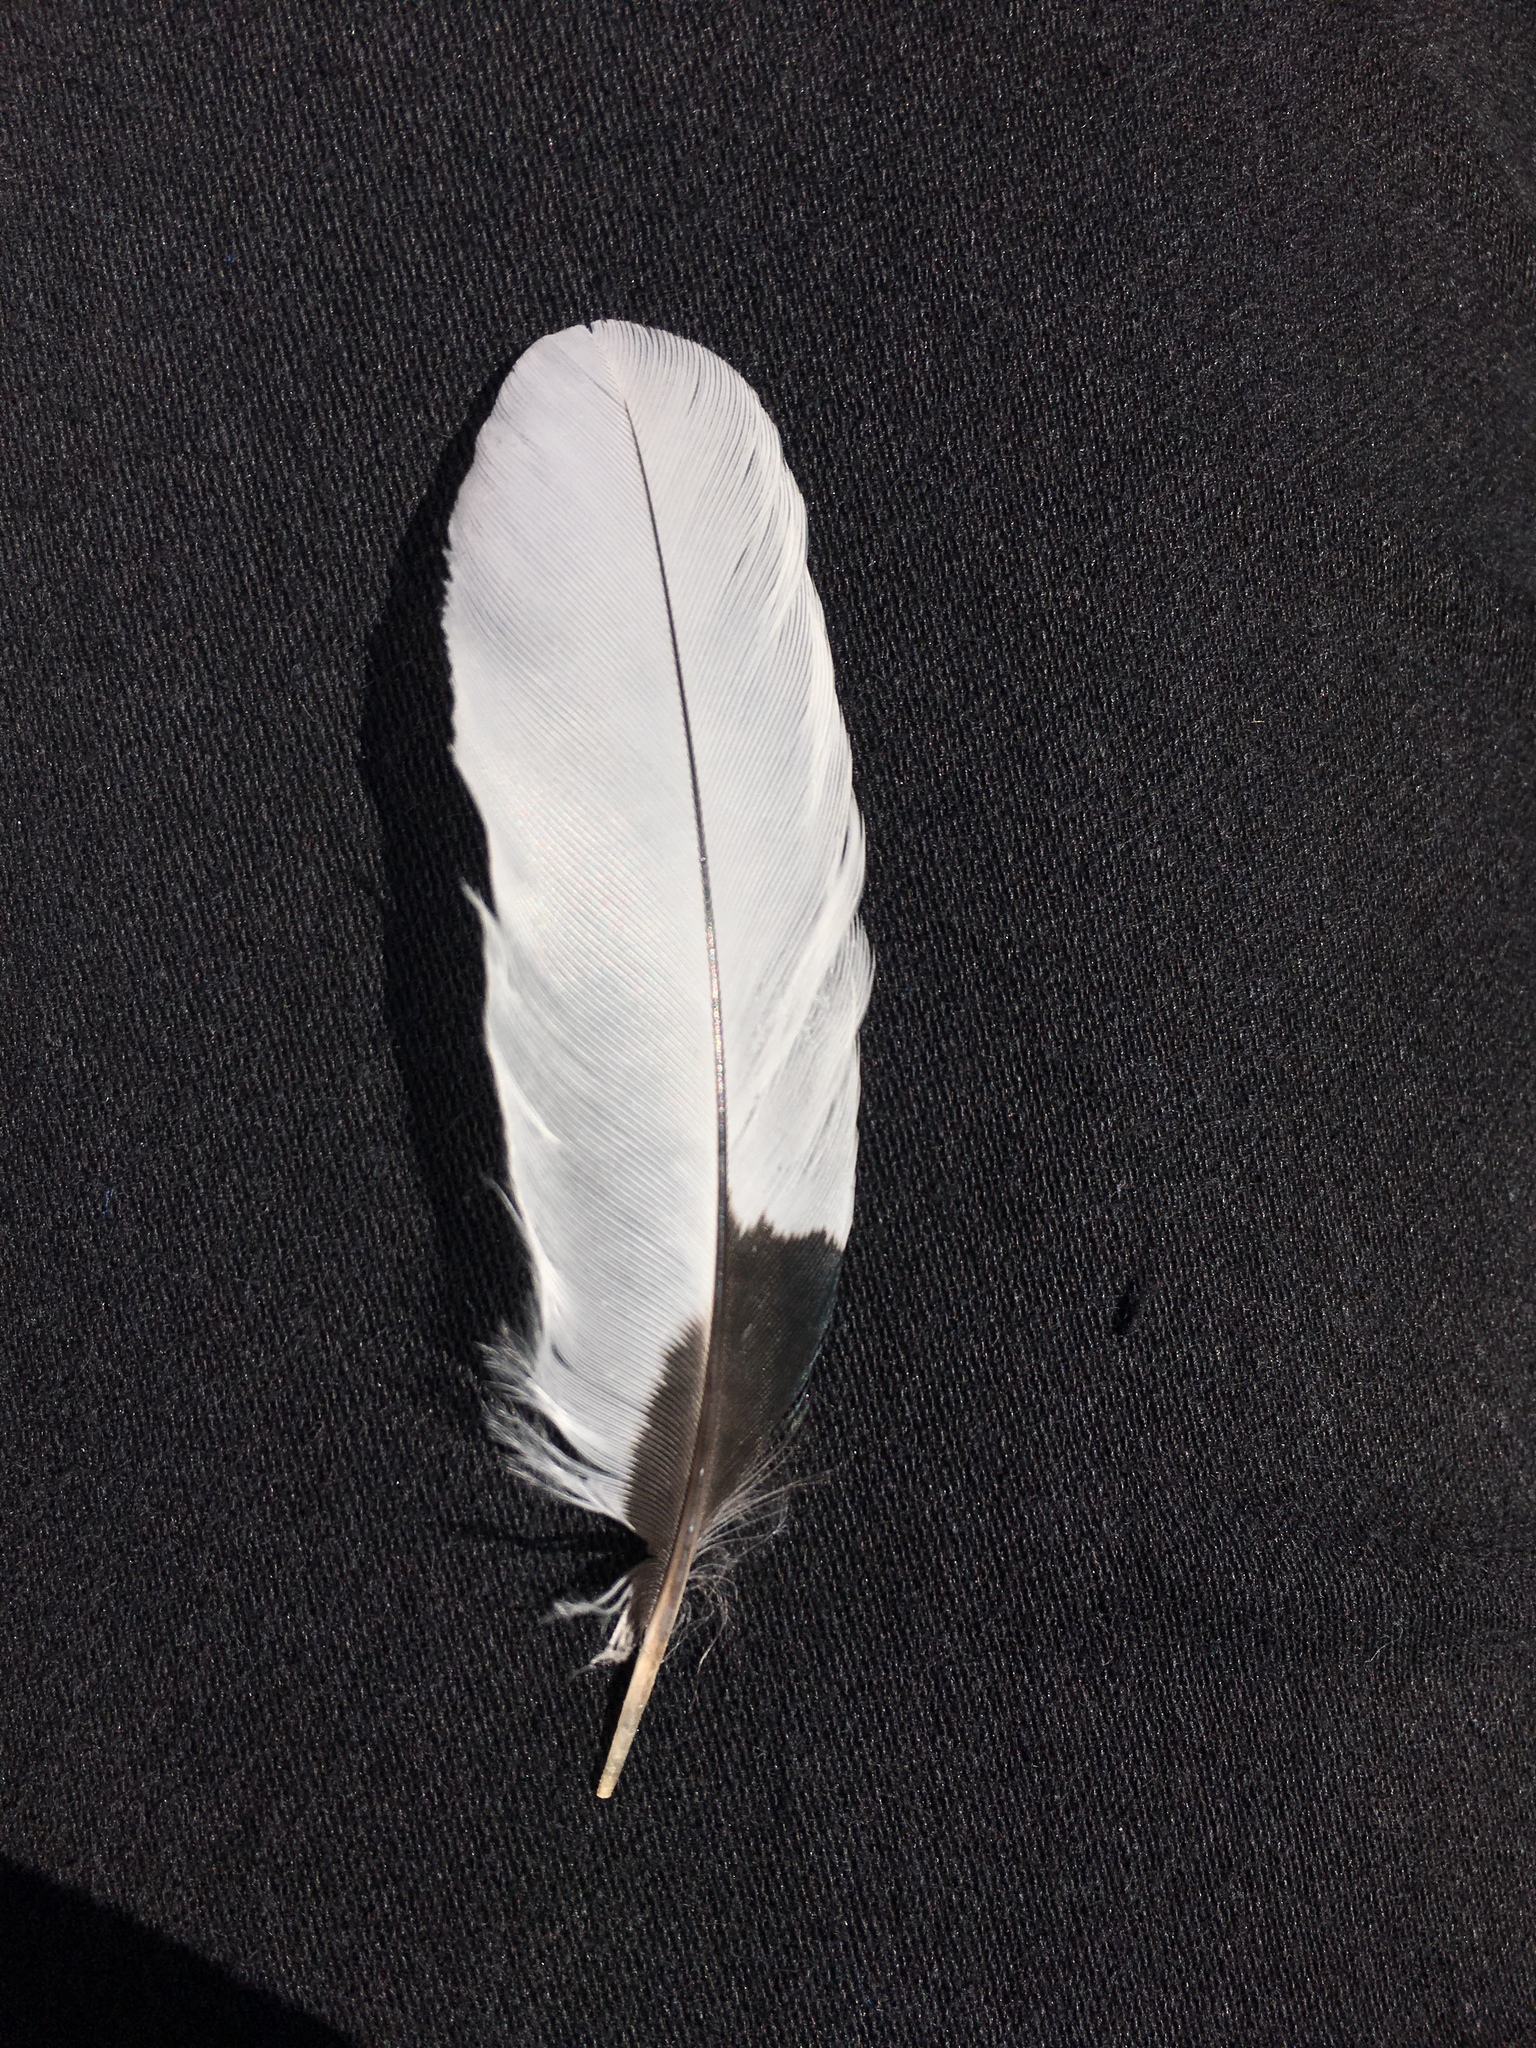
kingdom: Animalia
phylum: Chordata
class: Aves
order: Piciformes
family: Picidae
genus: Melanerpes
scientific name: Melanerpes erythrocephalus
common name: Red-headed woodpecker
